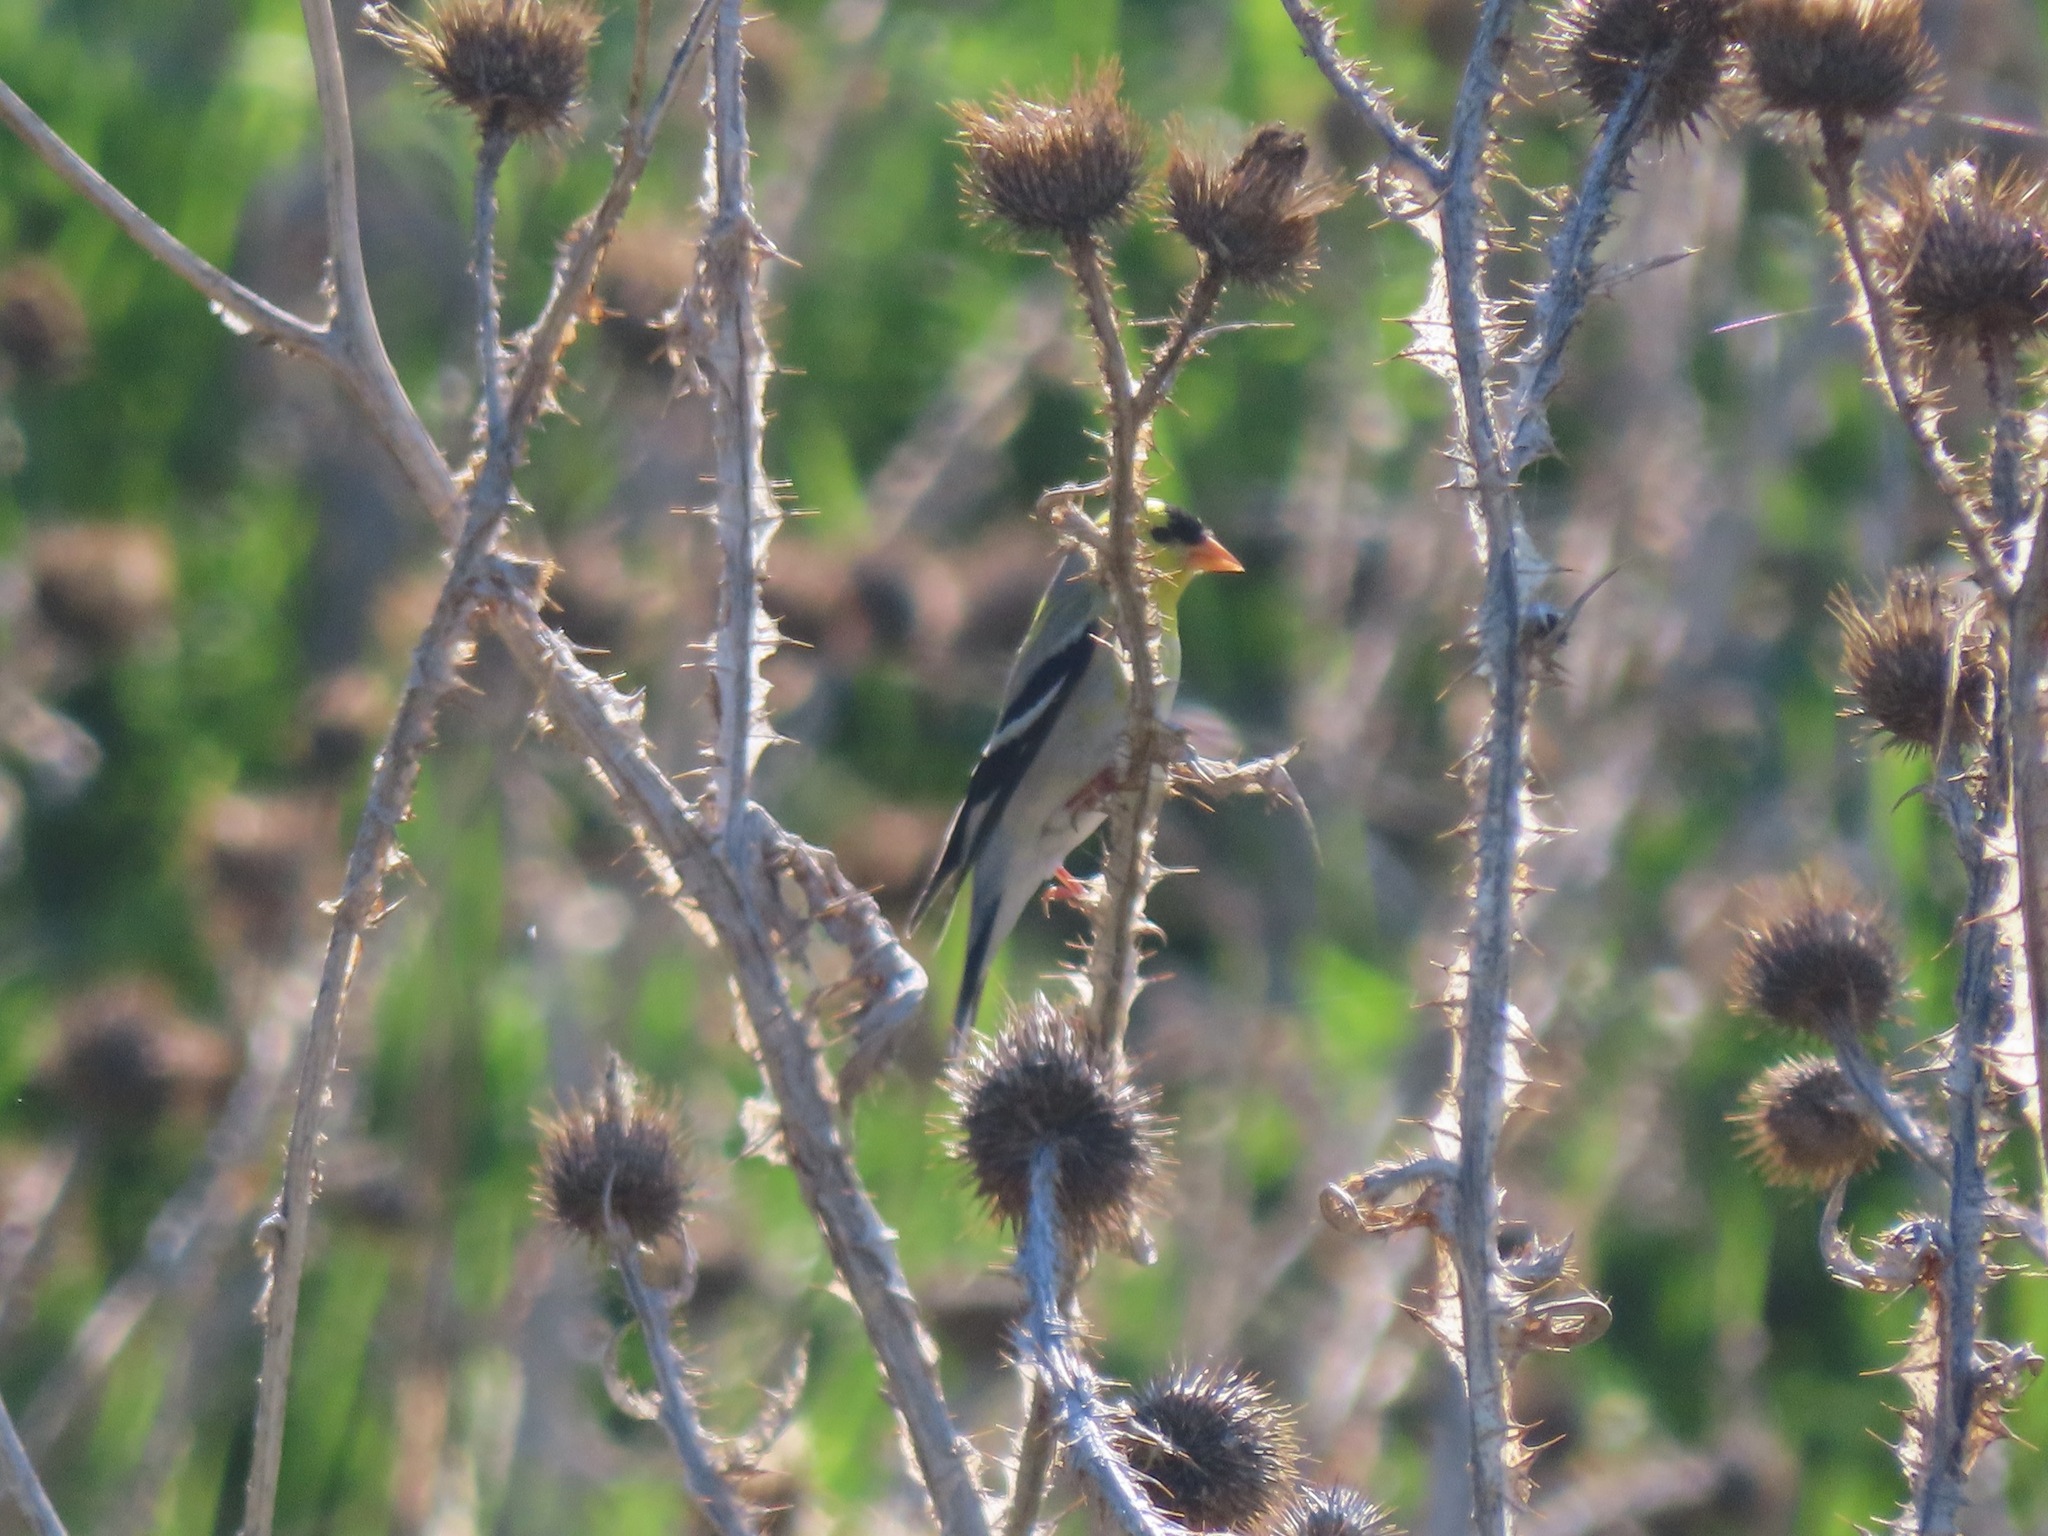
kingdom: Animalia
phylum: Chordata
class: Aves
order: Passeriformes
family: Fringillidae
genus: Spinus
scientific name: Spinus tristis
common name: American goldfinch
